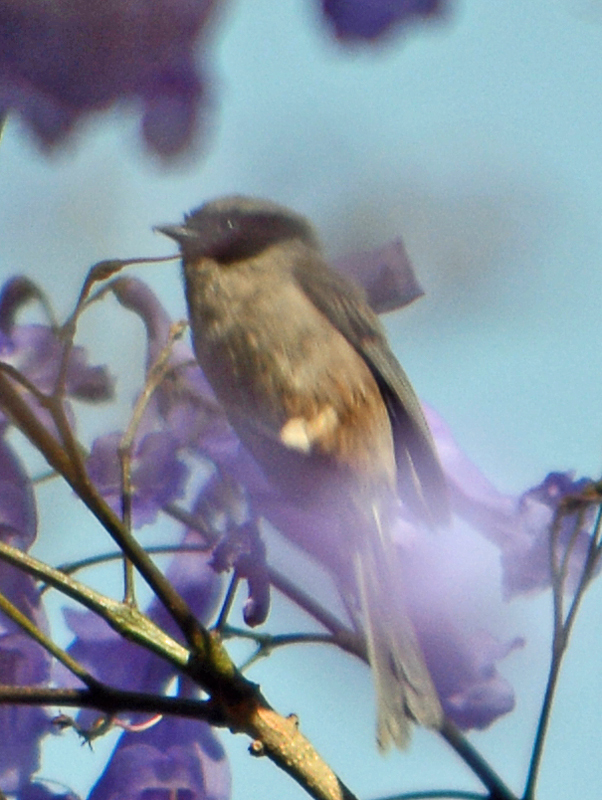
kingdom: Animalia
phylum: Chordata
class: Aves
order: Passeriformes
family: Aegithalidae
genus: Psaltriparus
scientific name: Psaltriparus minimus
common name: American bushtit
